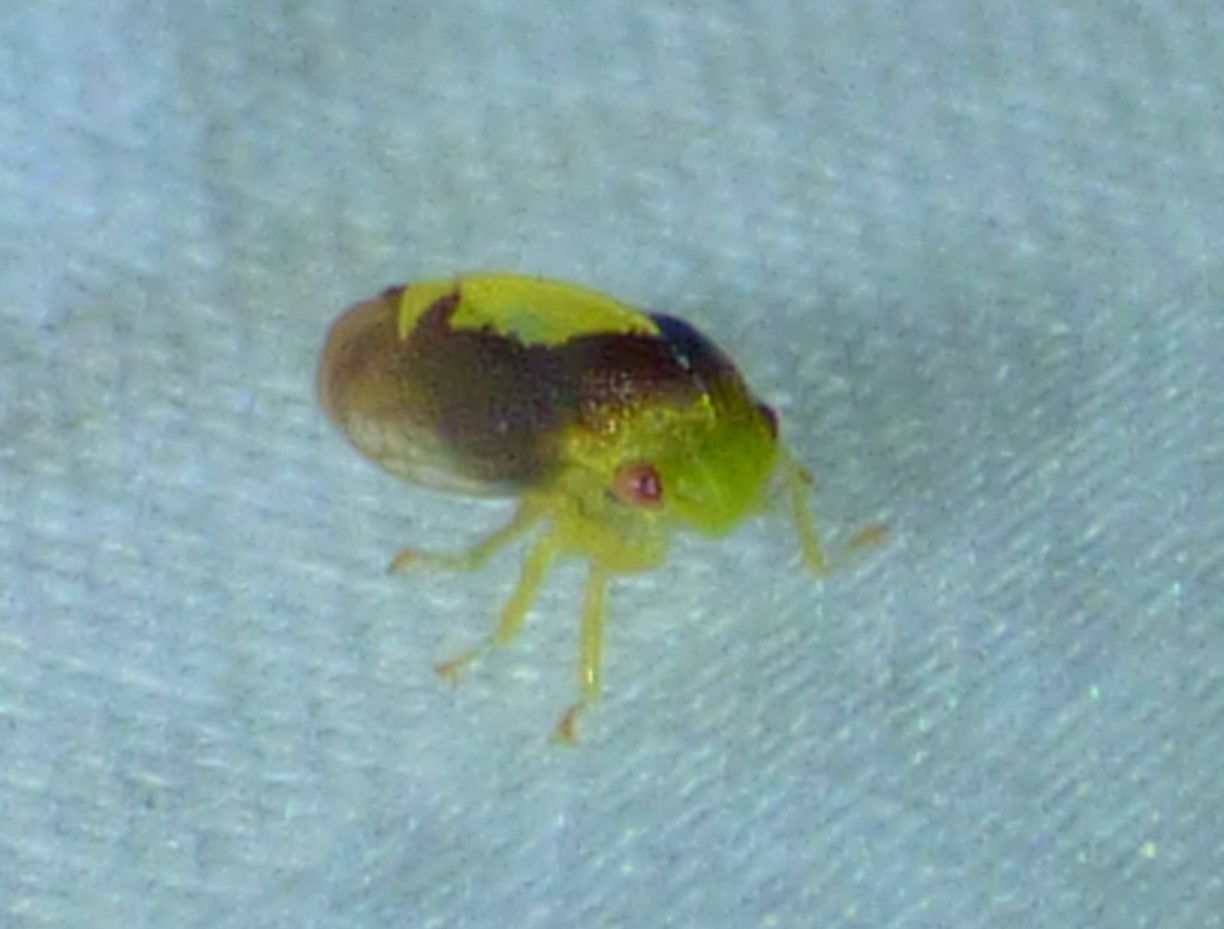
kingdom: Animalia
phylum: Arthropoda
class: Insecta
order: Hemiptera
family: Membracidae
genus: Atymna
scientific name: Atymna querci
